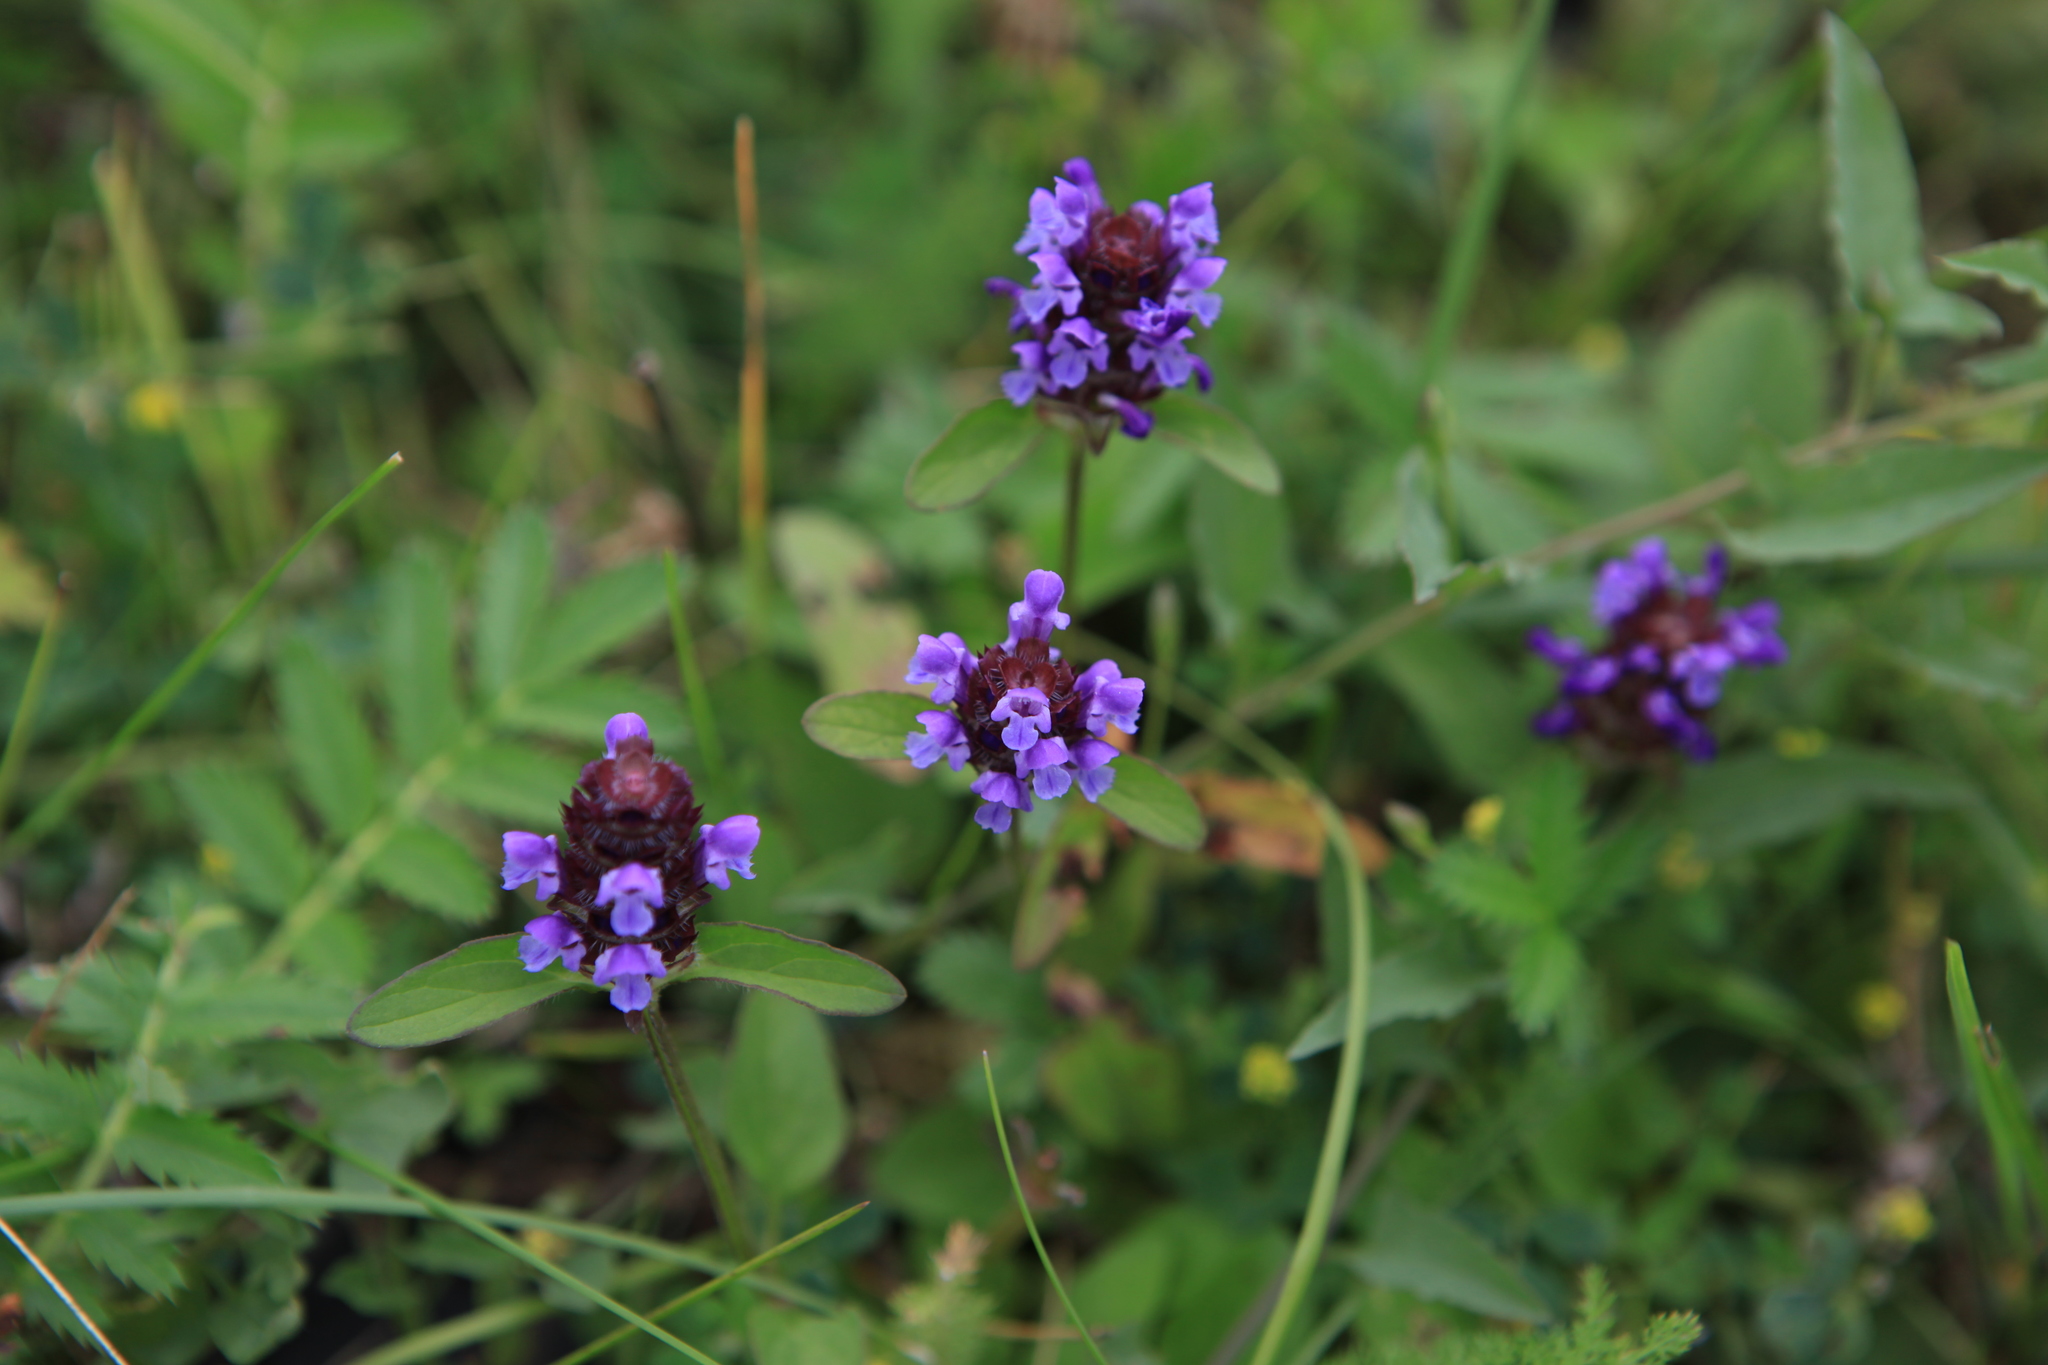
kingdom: Plantae
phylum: Tracheophyta
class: Magnoliopsida
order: Lamiales
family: Lamiaceae
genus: Prunella
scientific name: Prunella vulgaris
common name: Heal-all
